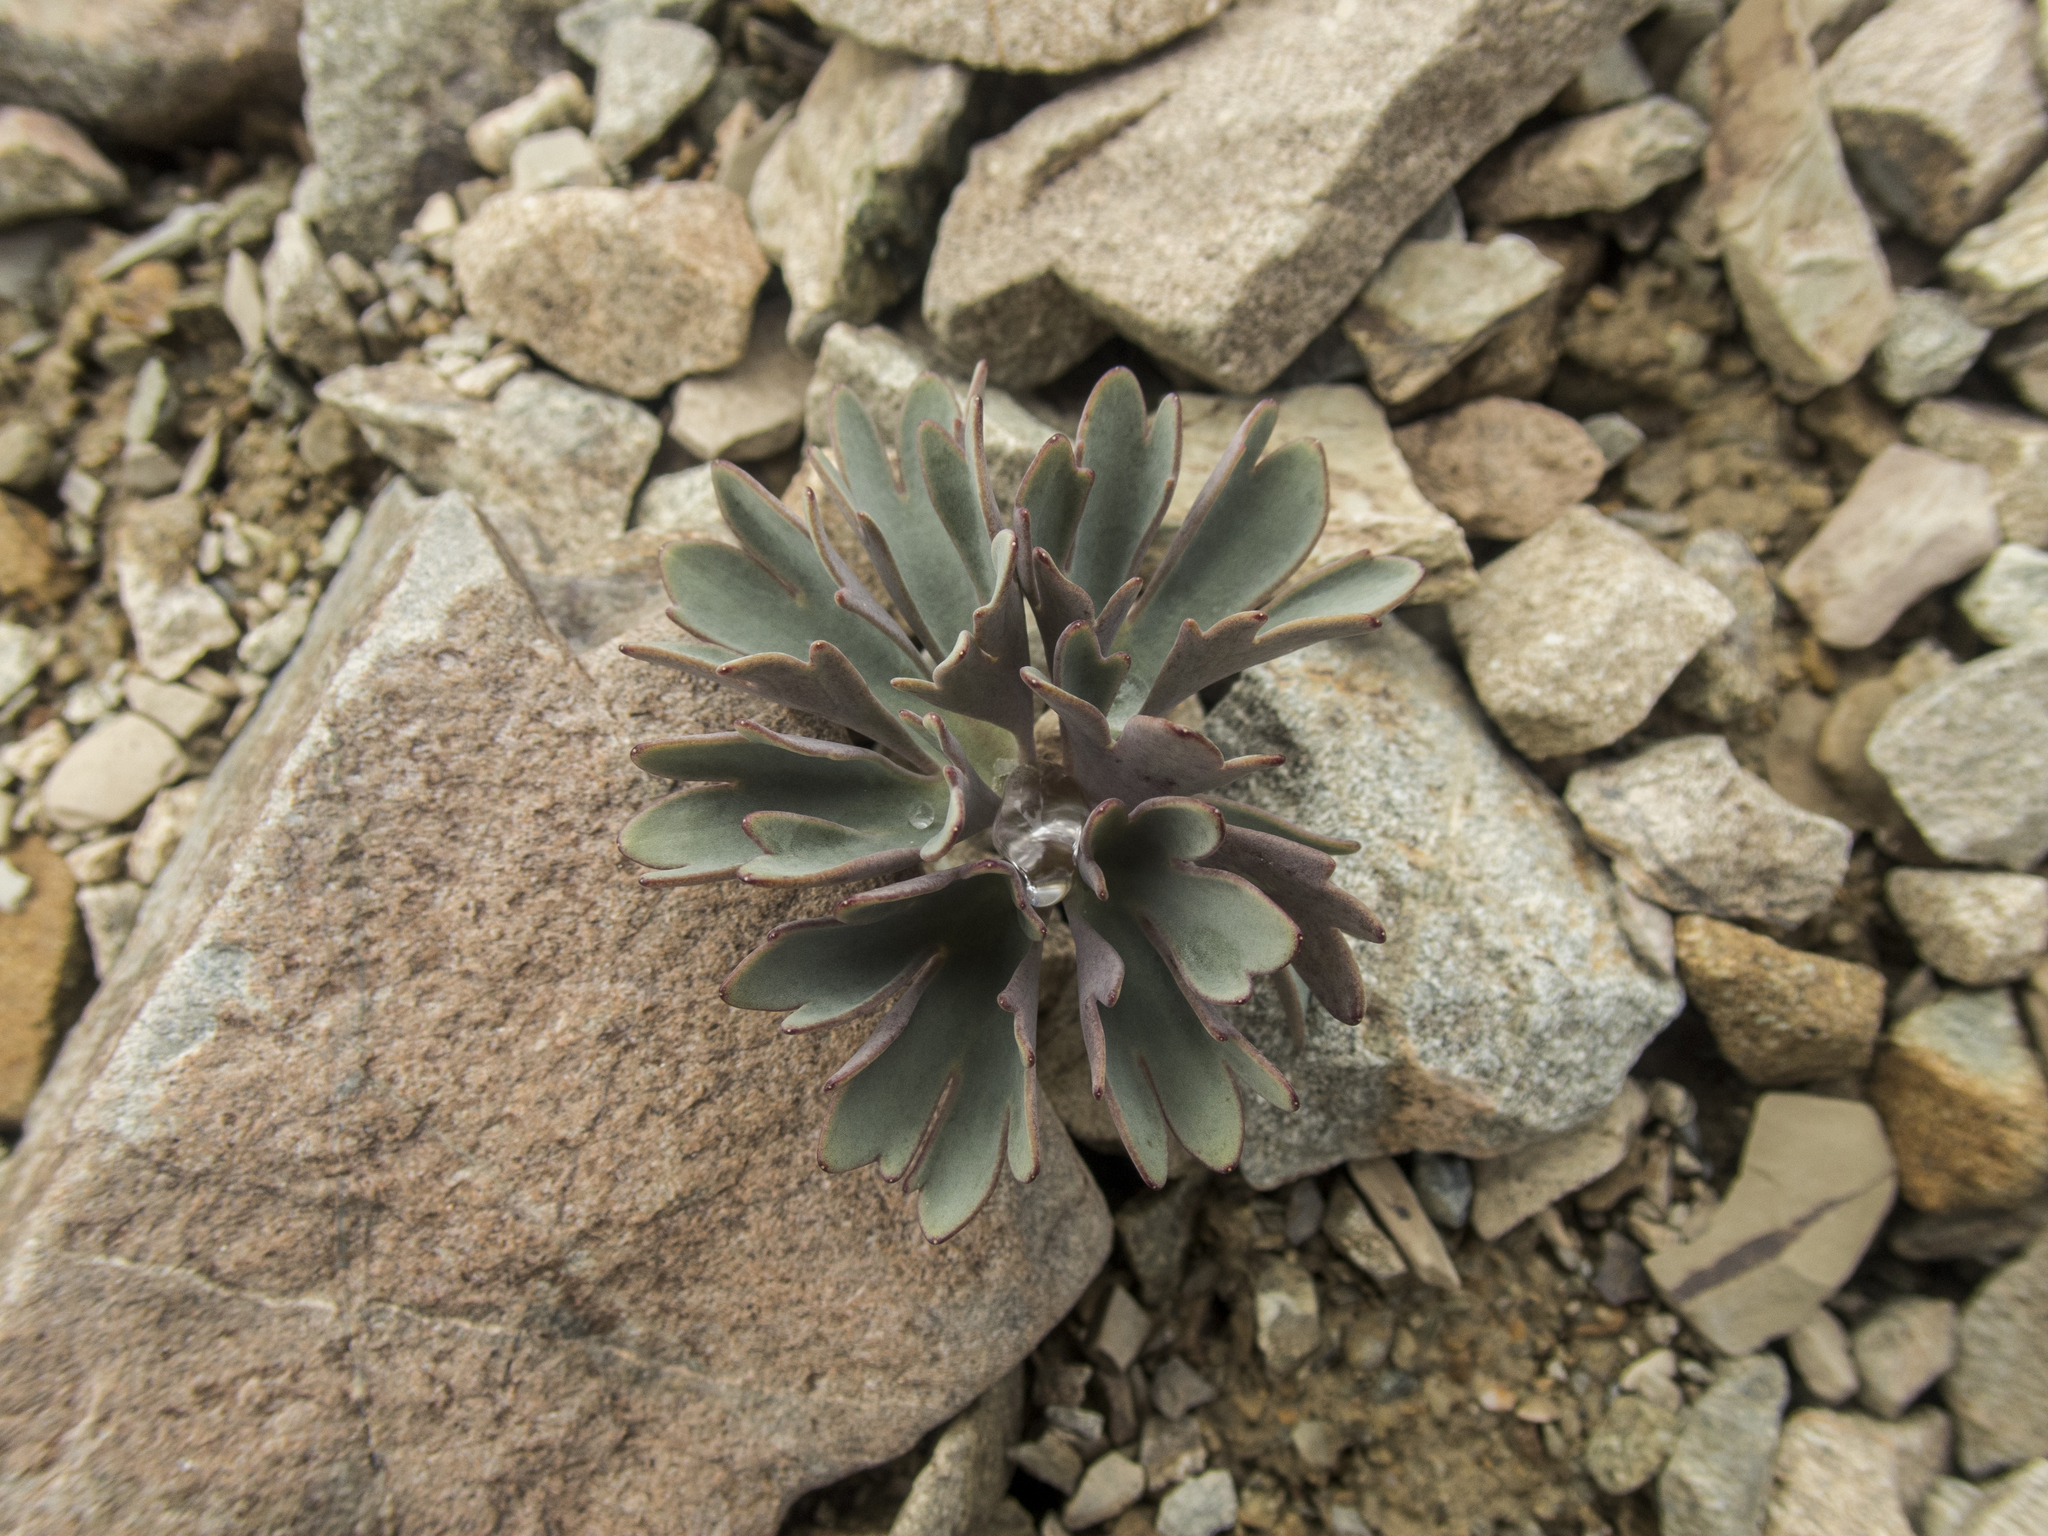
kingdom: Plantae
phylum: Tracheophyta
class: Magnoliopsida
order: Ranunculales
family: Ranunculaceae
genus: Ranunculus
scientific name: Ranunculus haastii
